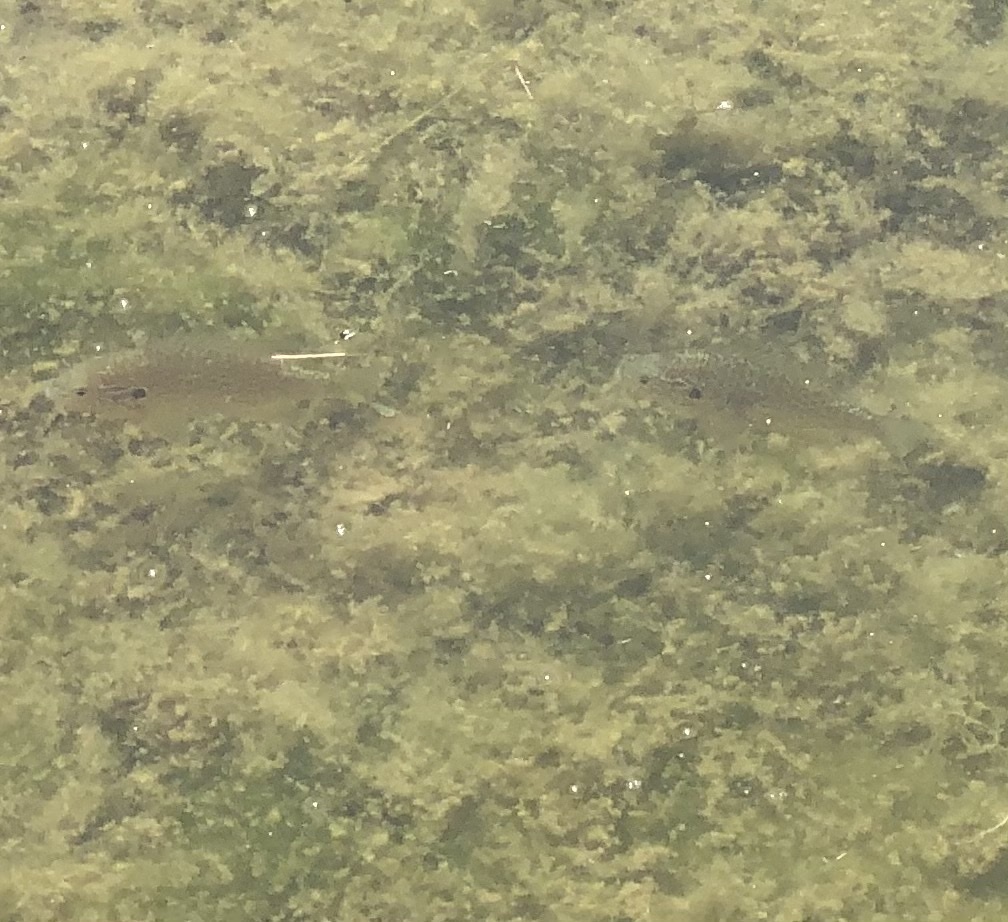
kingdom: Animalia
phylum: Chordata
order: Perciformes
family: Centrarchidae
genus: Lepomis
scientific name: Lepomis gibbosus
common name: Pumpkinseed
